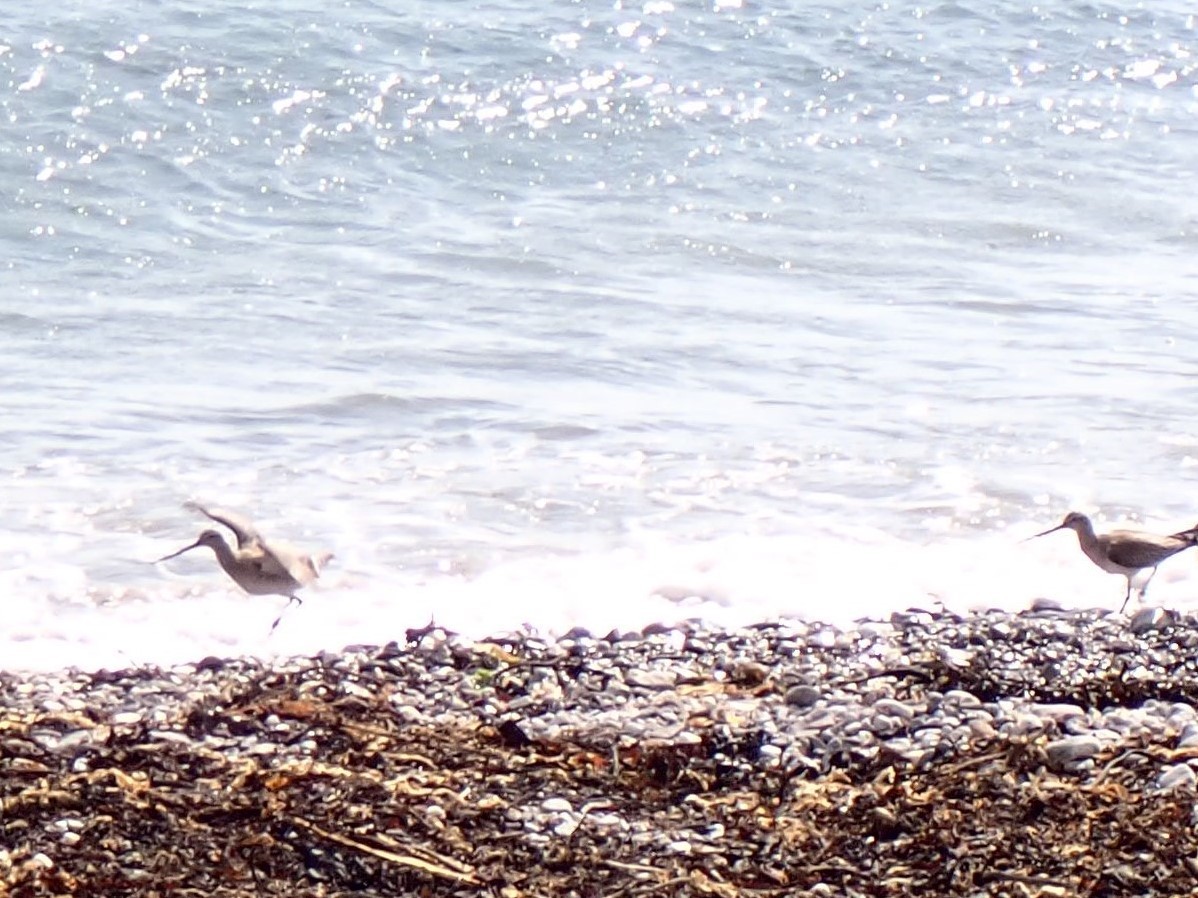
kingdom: Animalia
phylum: Chordata
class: Aves
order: Charadriiformes
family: Scolopacidae
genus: Limosa
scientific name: Limosa lapponica
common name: Bar-tailed godwit
